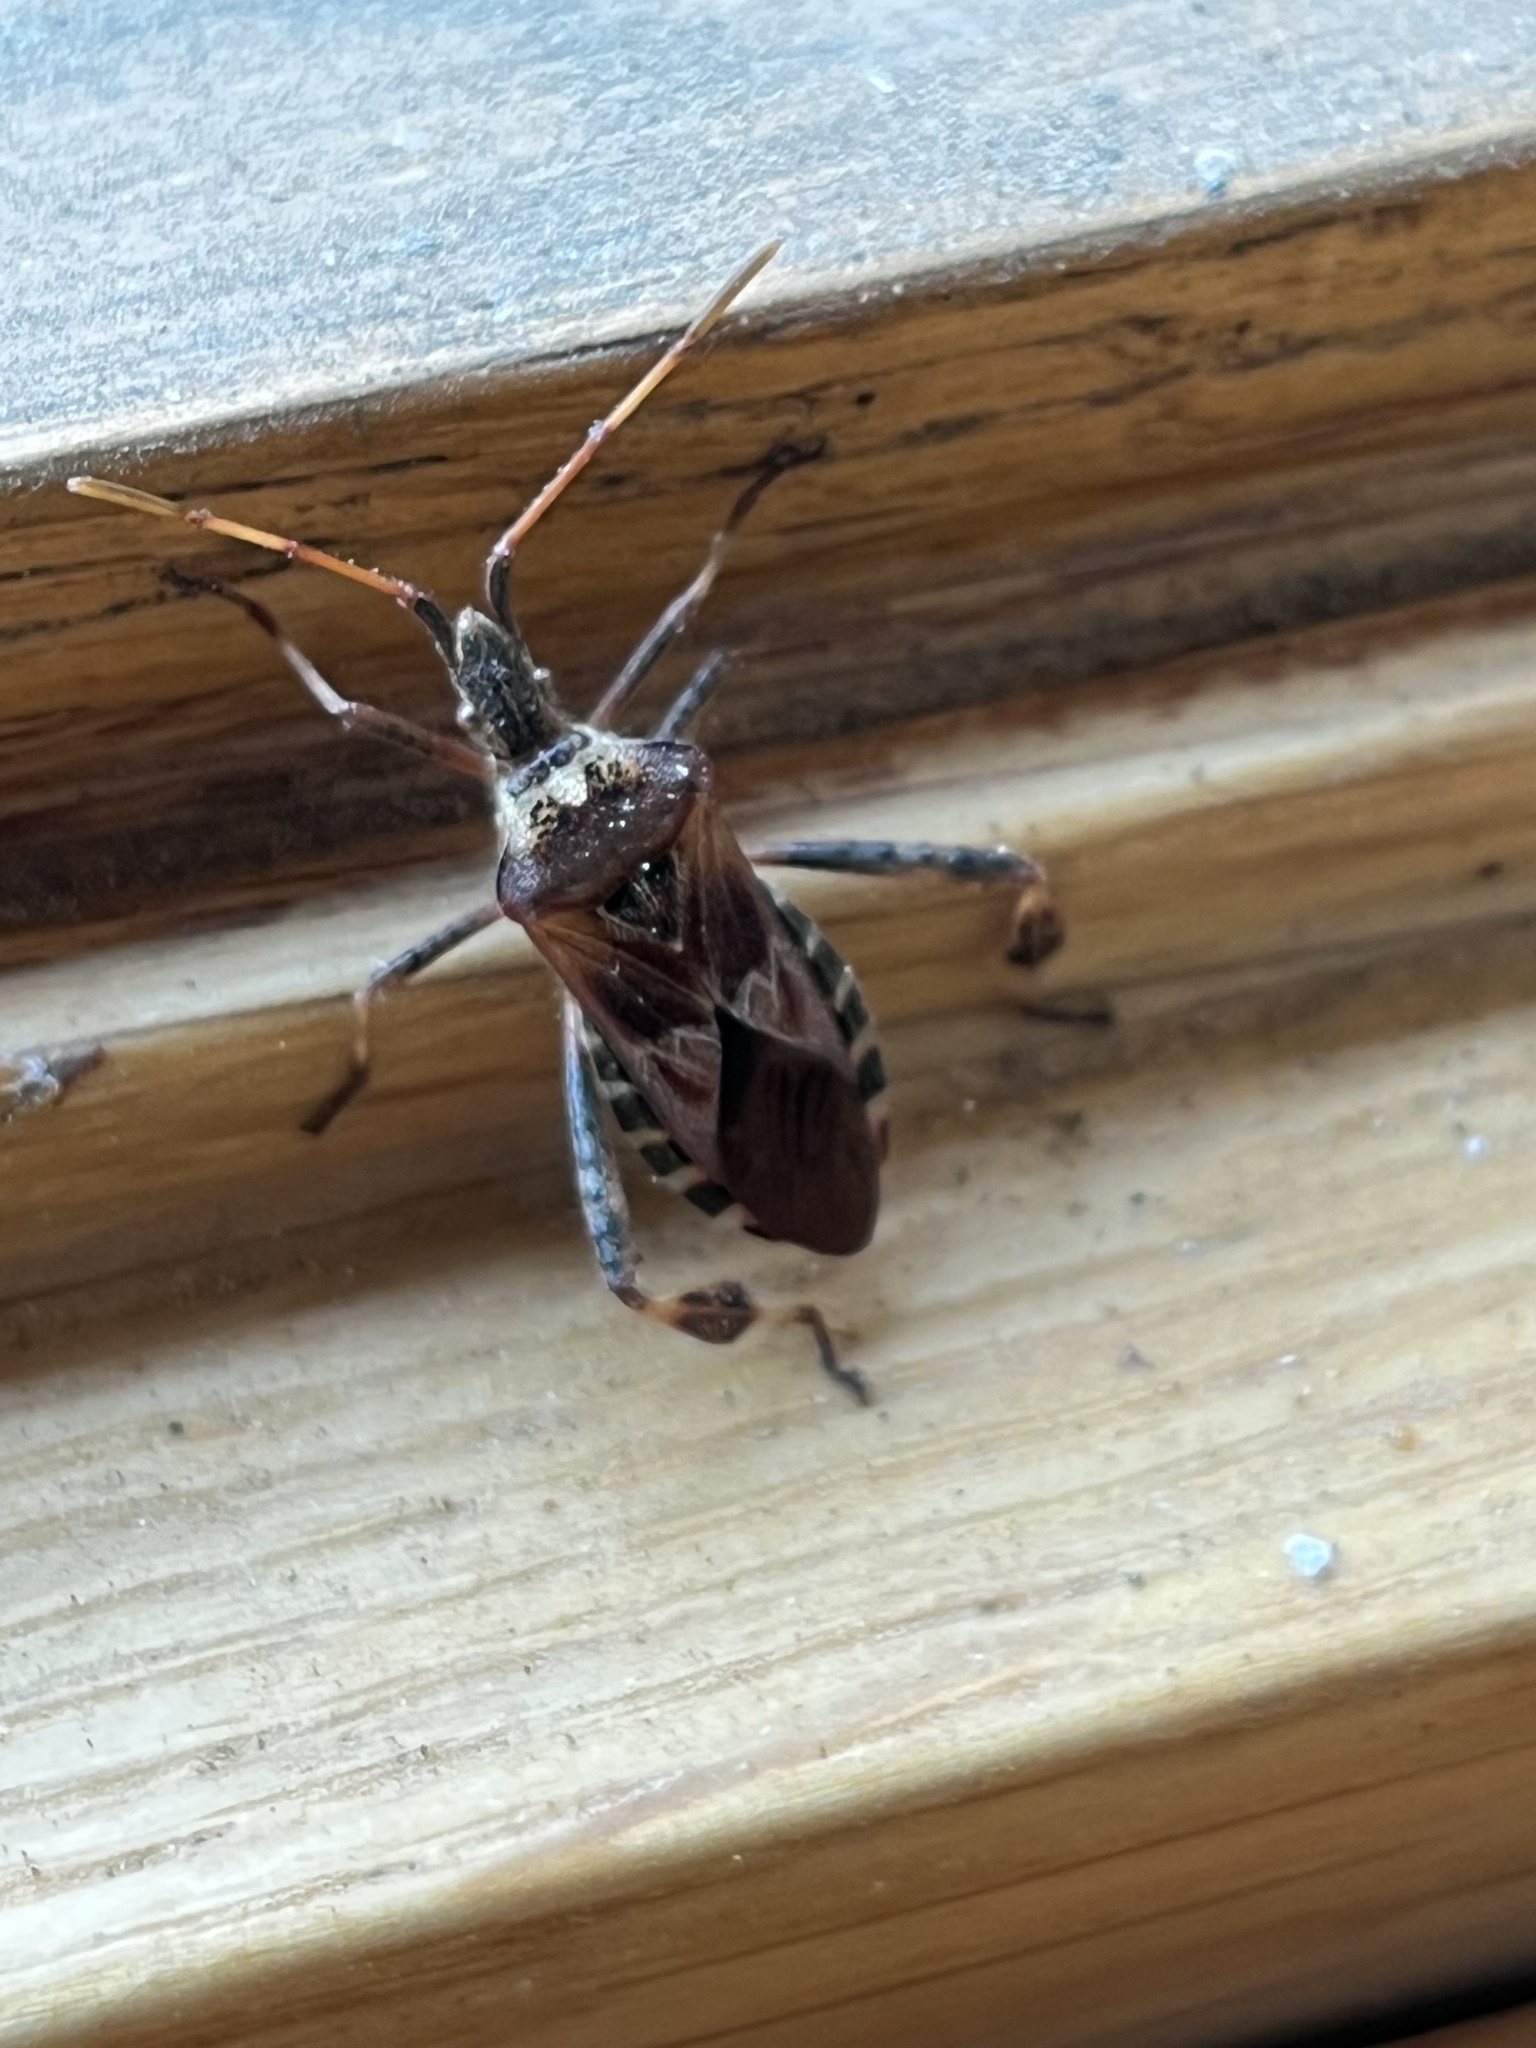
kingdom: Animalia
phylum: Arthropoda
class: Insecta
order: Hemiptera
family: Coreidae
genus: Leptoglossus
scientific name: Leptoglossus occidentalis
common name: Western conifer-seed bug
